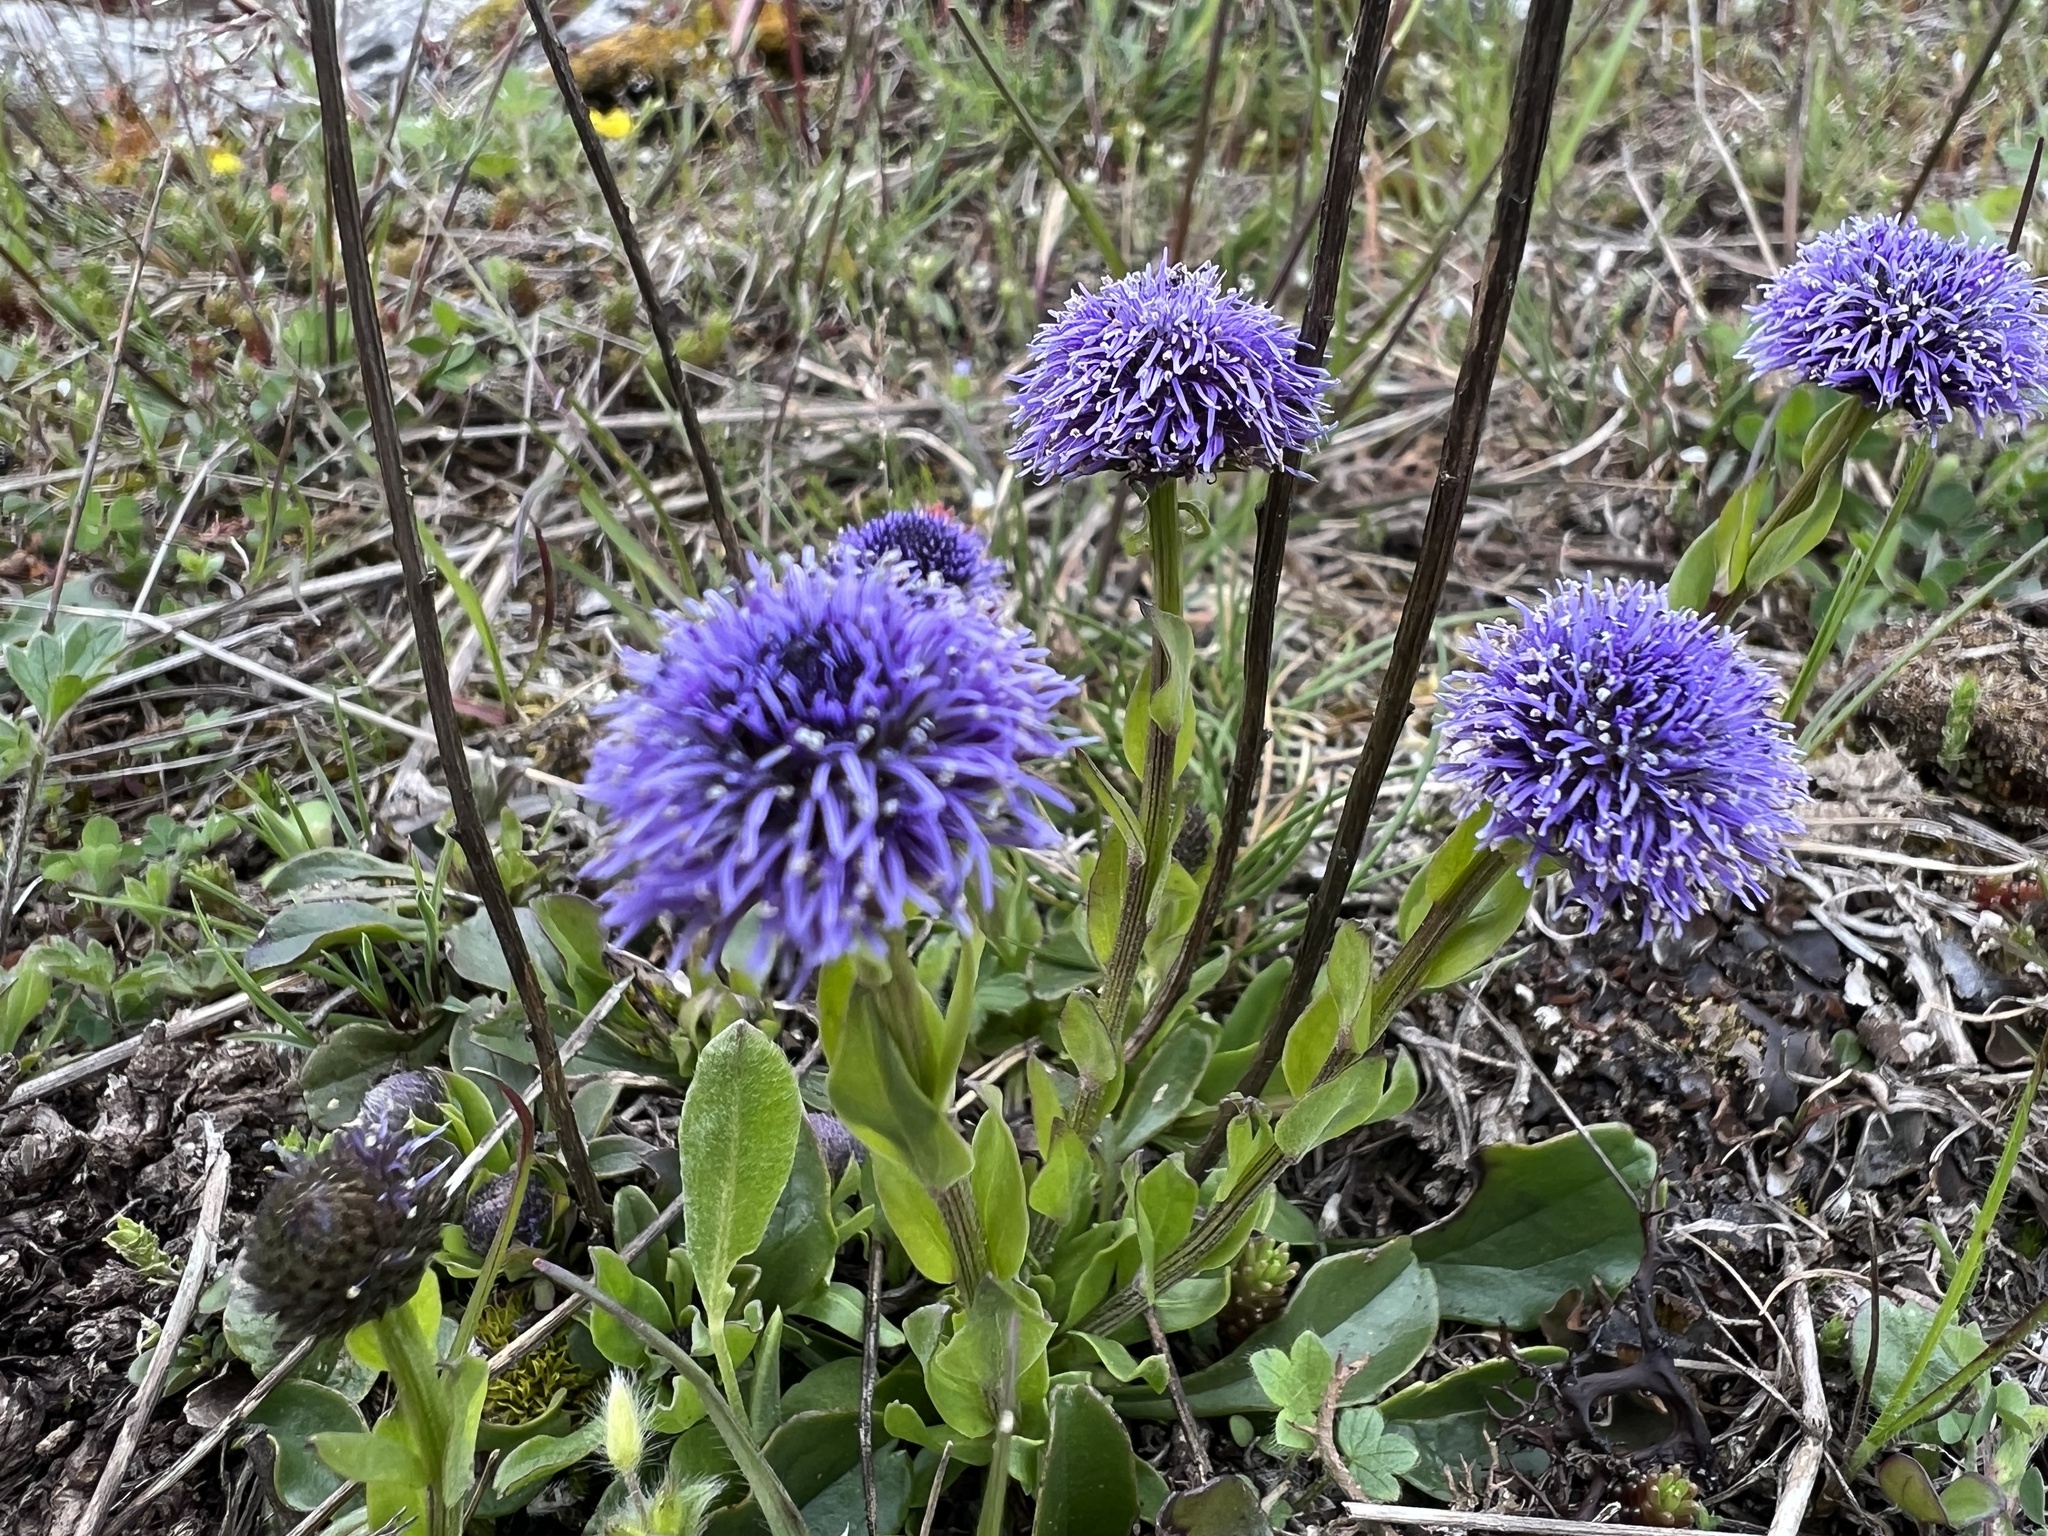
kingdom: Plantae
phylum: Tracheophyta
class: Magnoliopsida
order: Lamiales
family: Plantaginaceae
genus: Globularia
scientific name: Globularia bisnagarica
